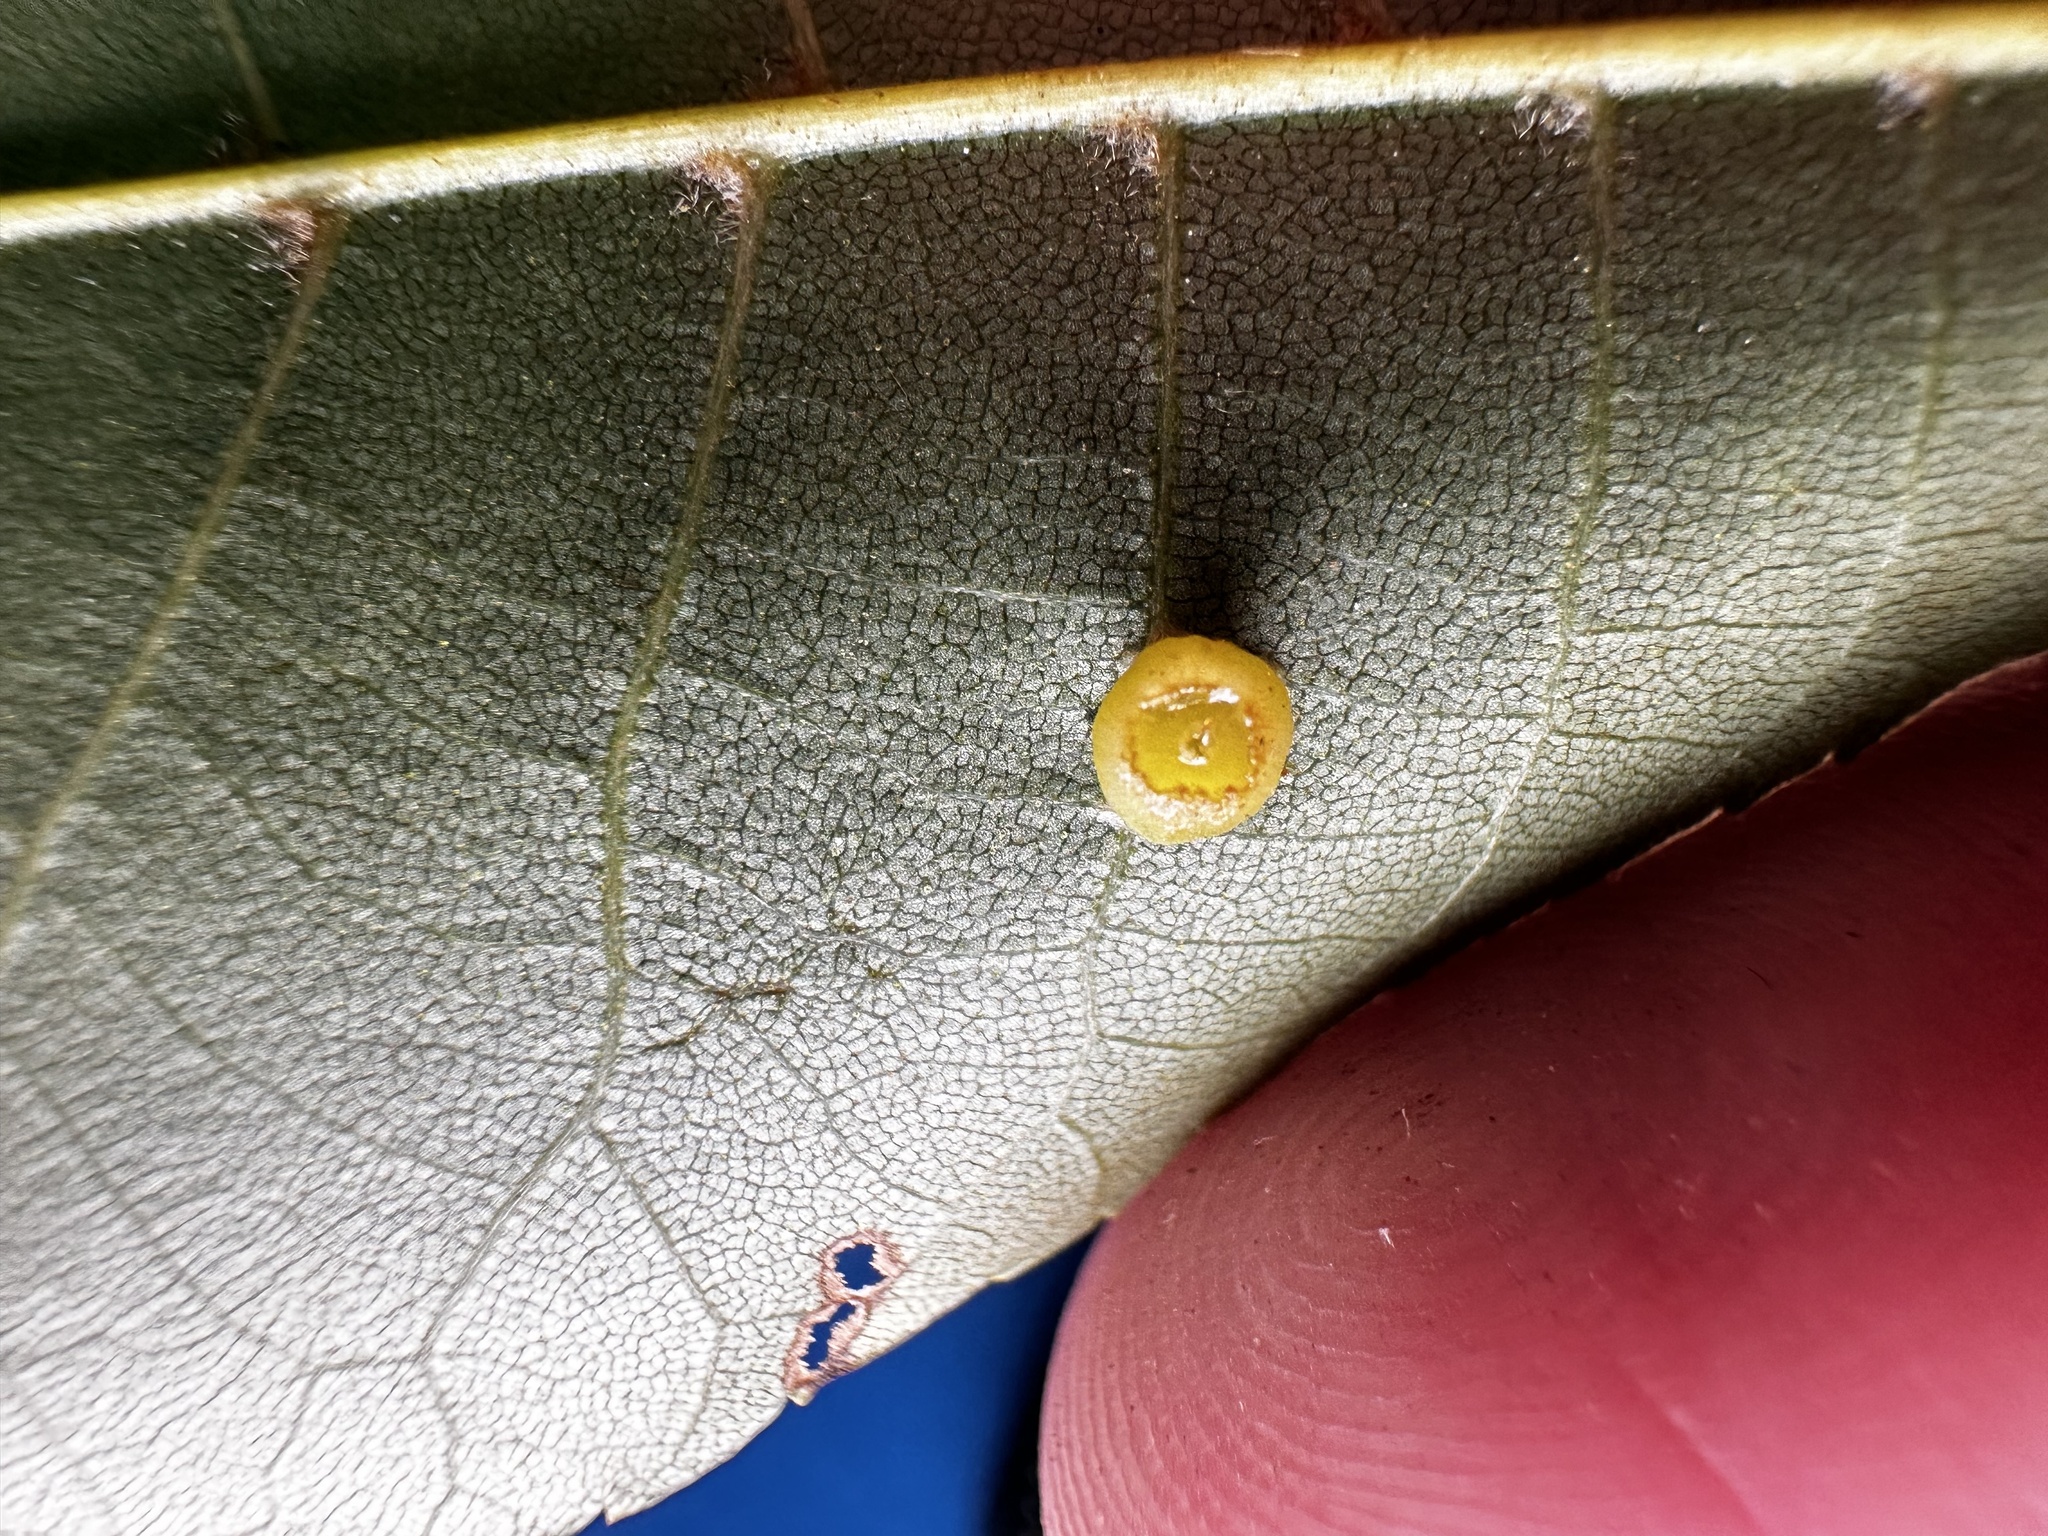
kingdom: Animalia
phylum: Arthropoda
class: Insecta
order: Diptera
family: Cecidomyiidae
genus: Caryomyia
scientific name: Caryomyia melicrustum
